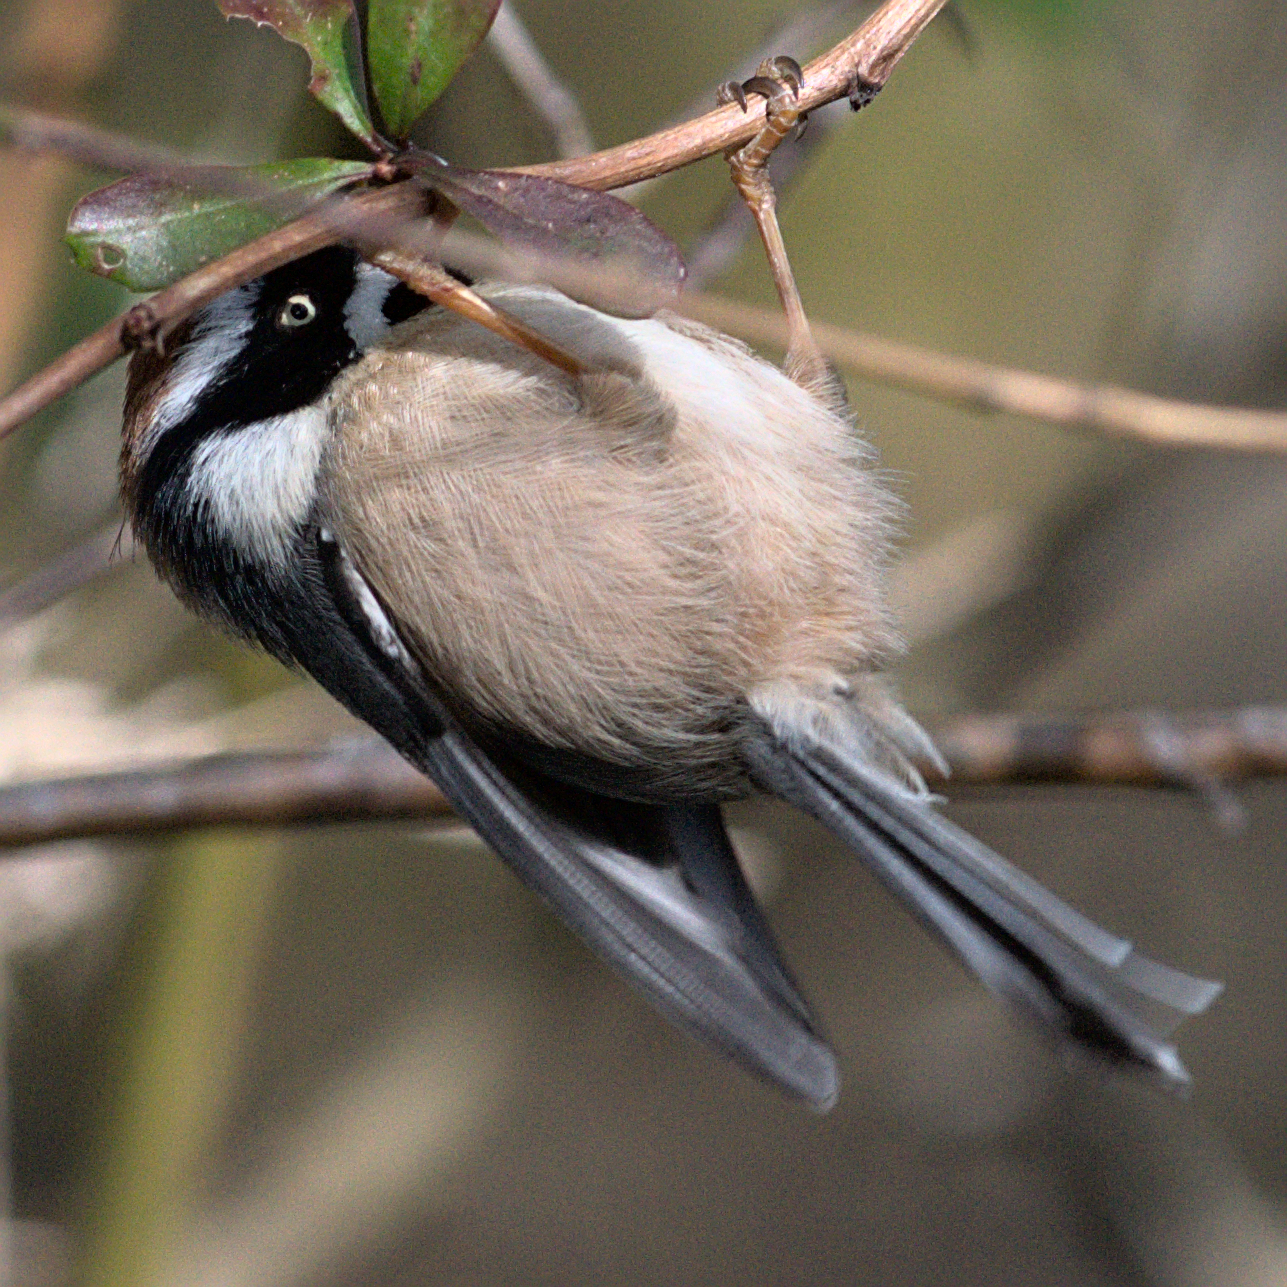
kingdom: Animalia
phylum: Chordata
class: Aves
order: Passeriformes
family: Aegithalidae
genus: Aegithalos
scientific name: Aegithalos concinnus
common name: Black-throated bushtit
